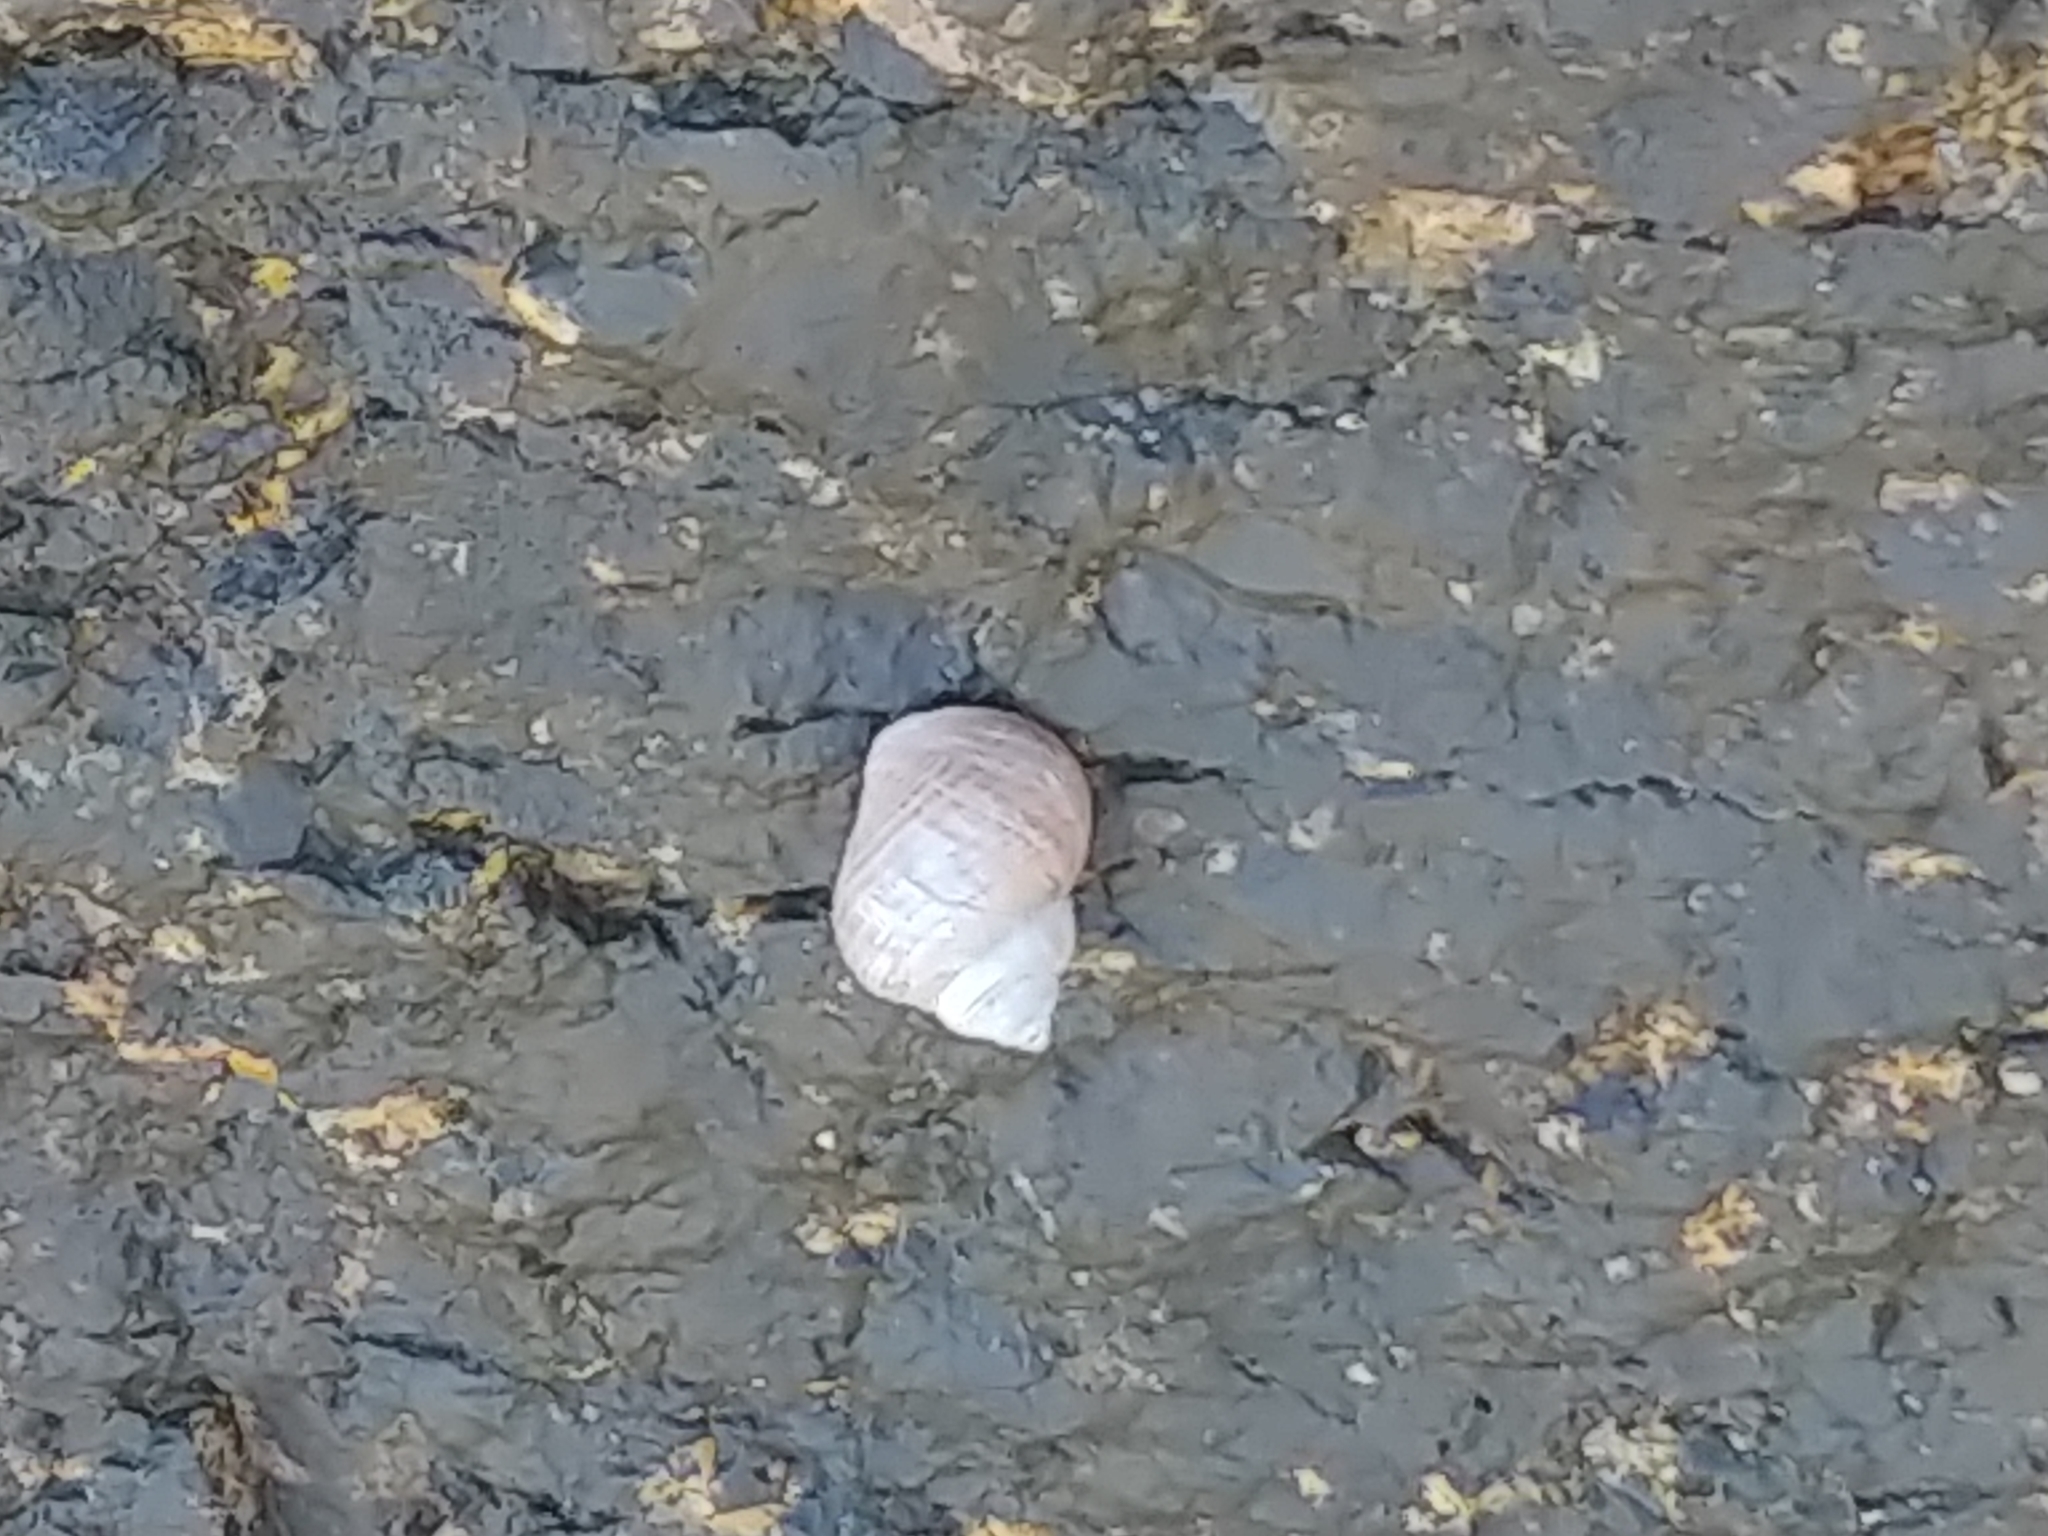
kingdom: Animalia
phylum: Mollusca
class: Gastropoda
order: Littorinimorpha
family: Littorinidae
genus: Littorina
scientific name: Littorina saxatilis
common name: Black-lined periwinkle
